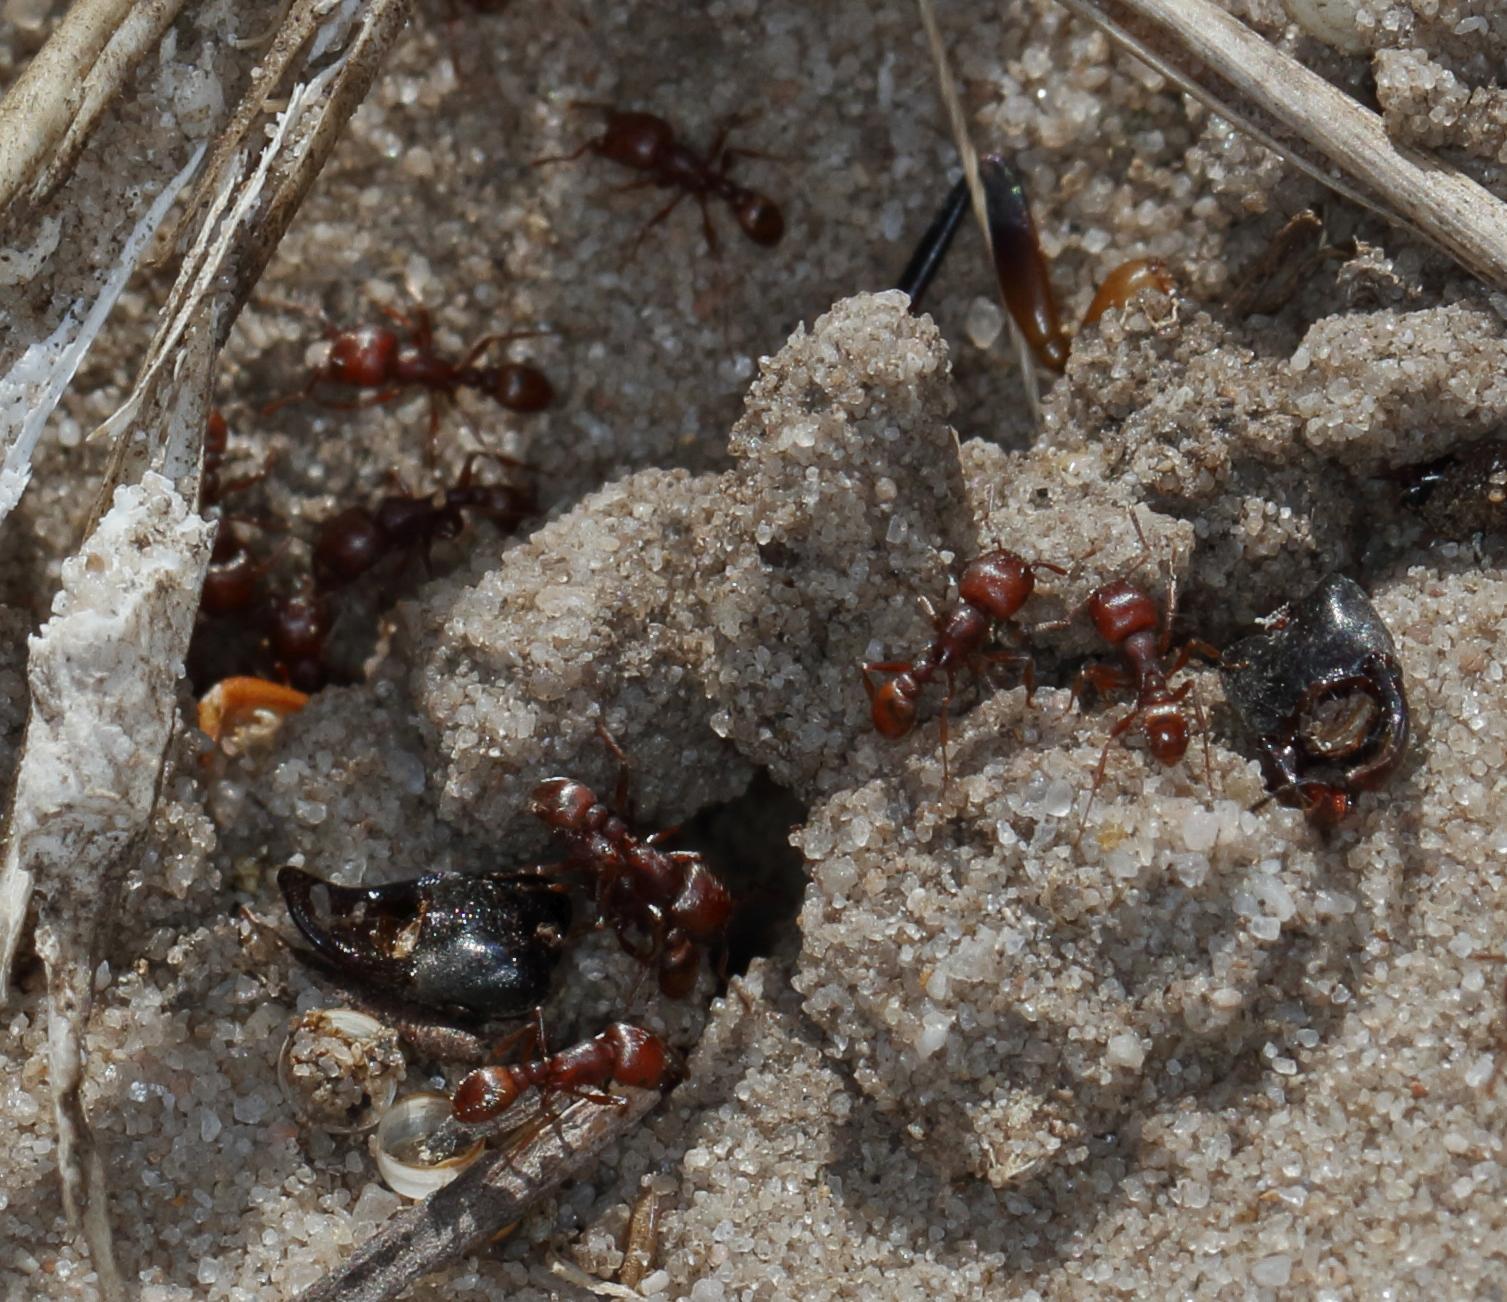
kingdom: Animalia
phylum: Arthropoda
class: Insecta
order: Hymenoptera
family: Formicidae
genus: Tetramorium
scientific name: Tetramorium setuliferum
